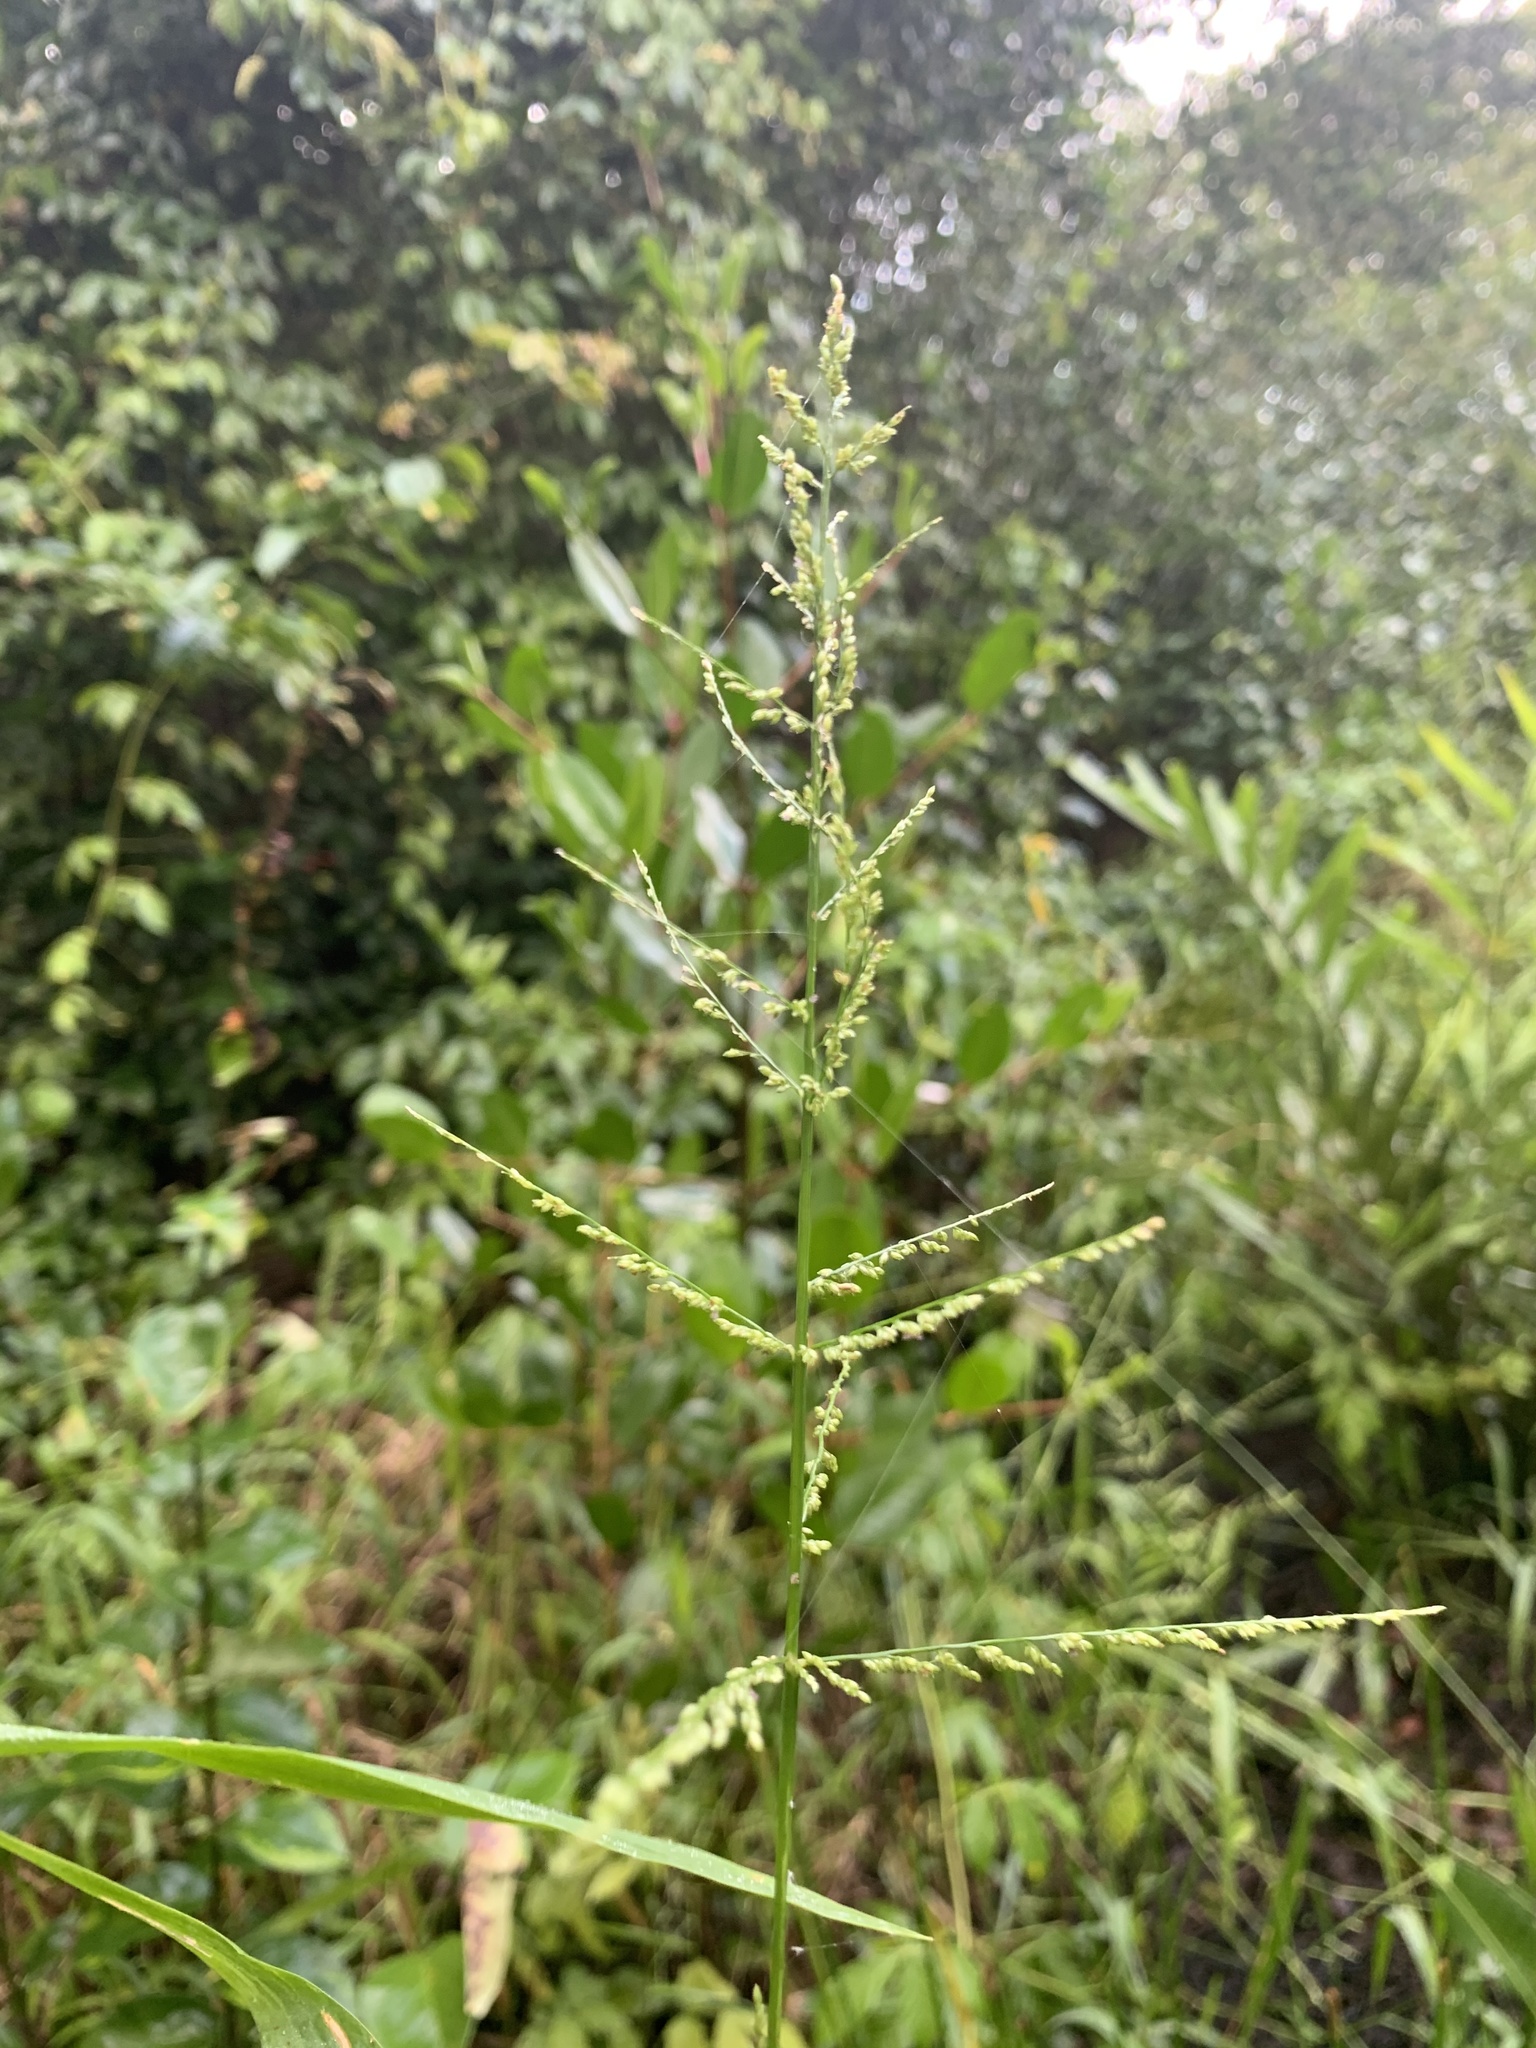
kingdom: Plantae
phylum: Tracheophyta
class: Liliopsida
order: Poales
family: Poaceae
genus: Steinchisma
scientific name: Steinchisma laxum
